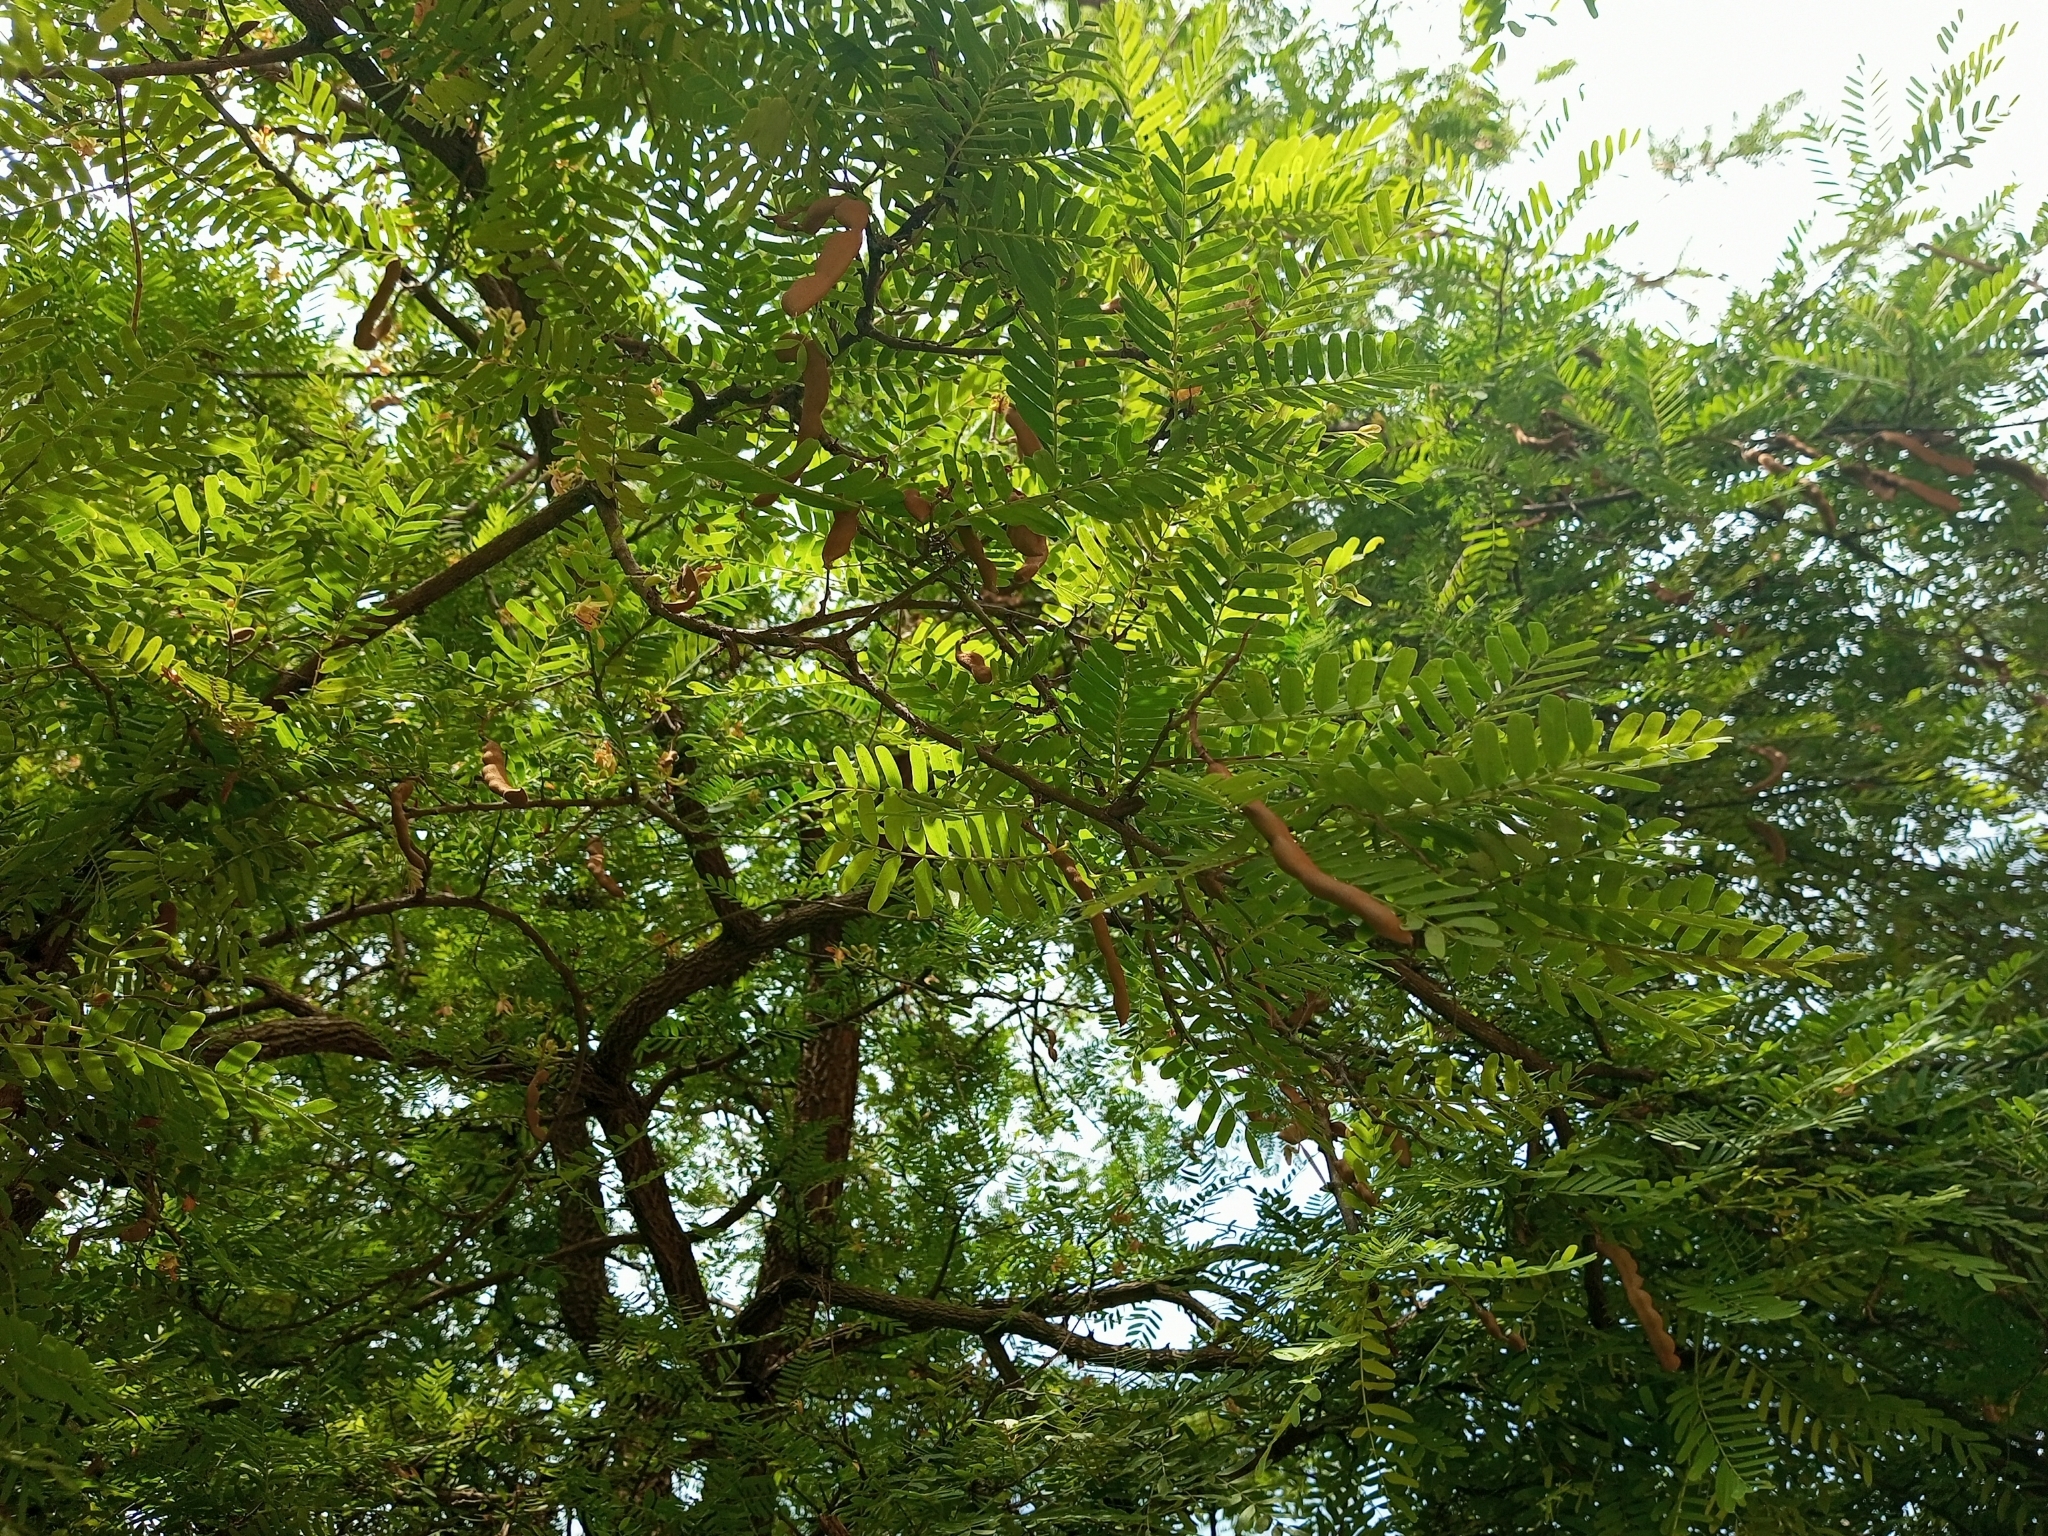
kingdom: Plantae
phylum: Tracheophyta
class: Magnoliopsida
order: Fabales
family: Fabaceae
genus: Tamarindus
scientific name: Tamarindus indica
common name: Tamarind
